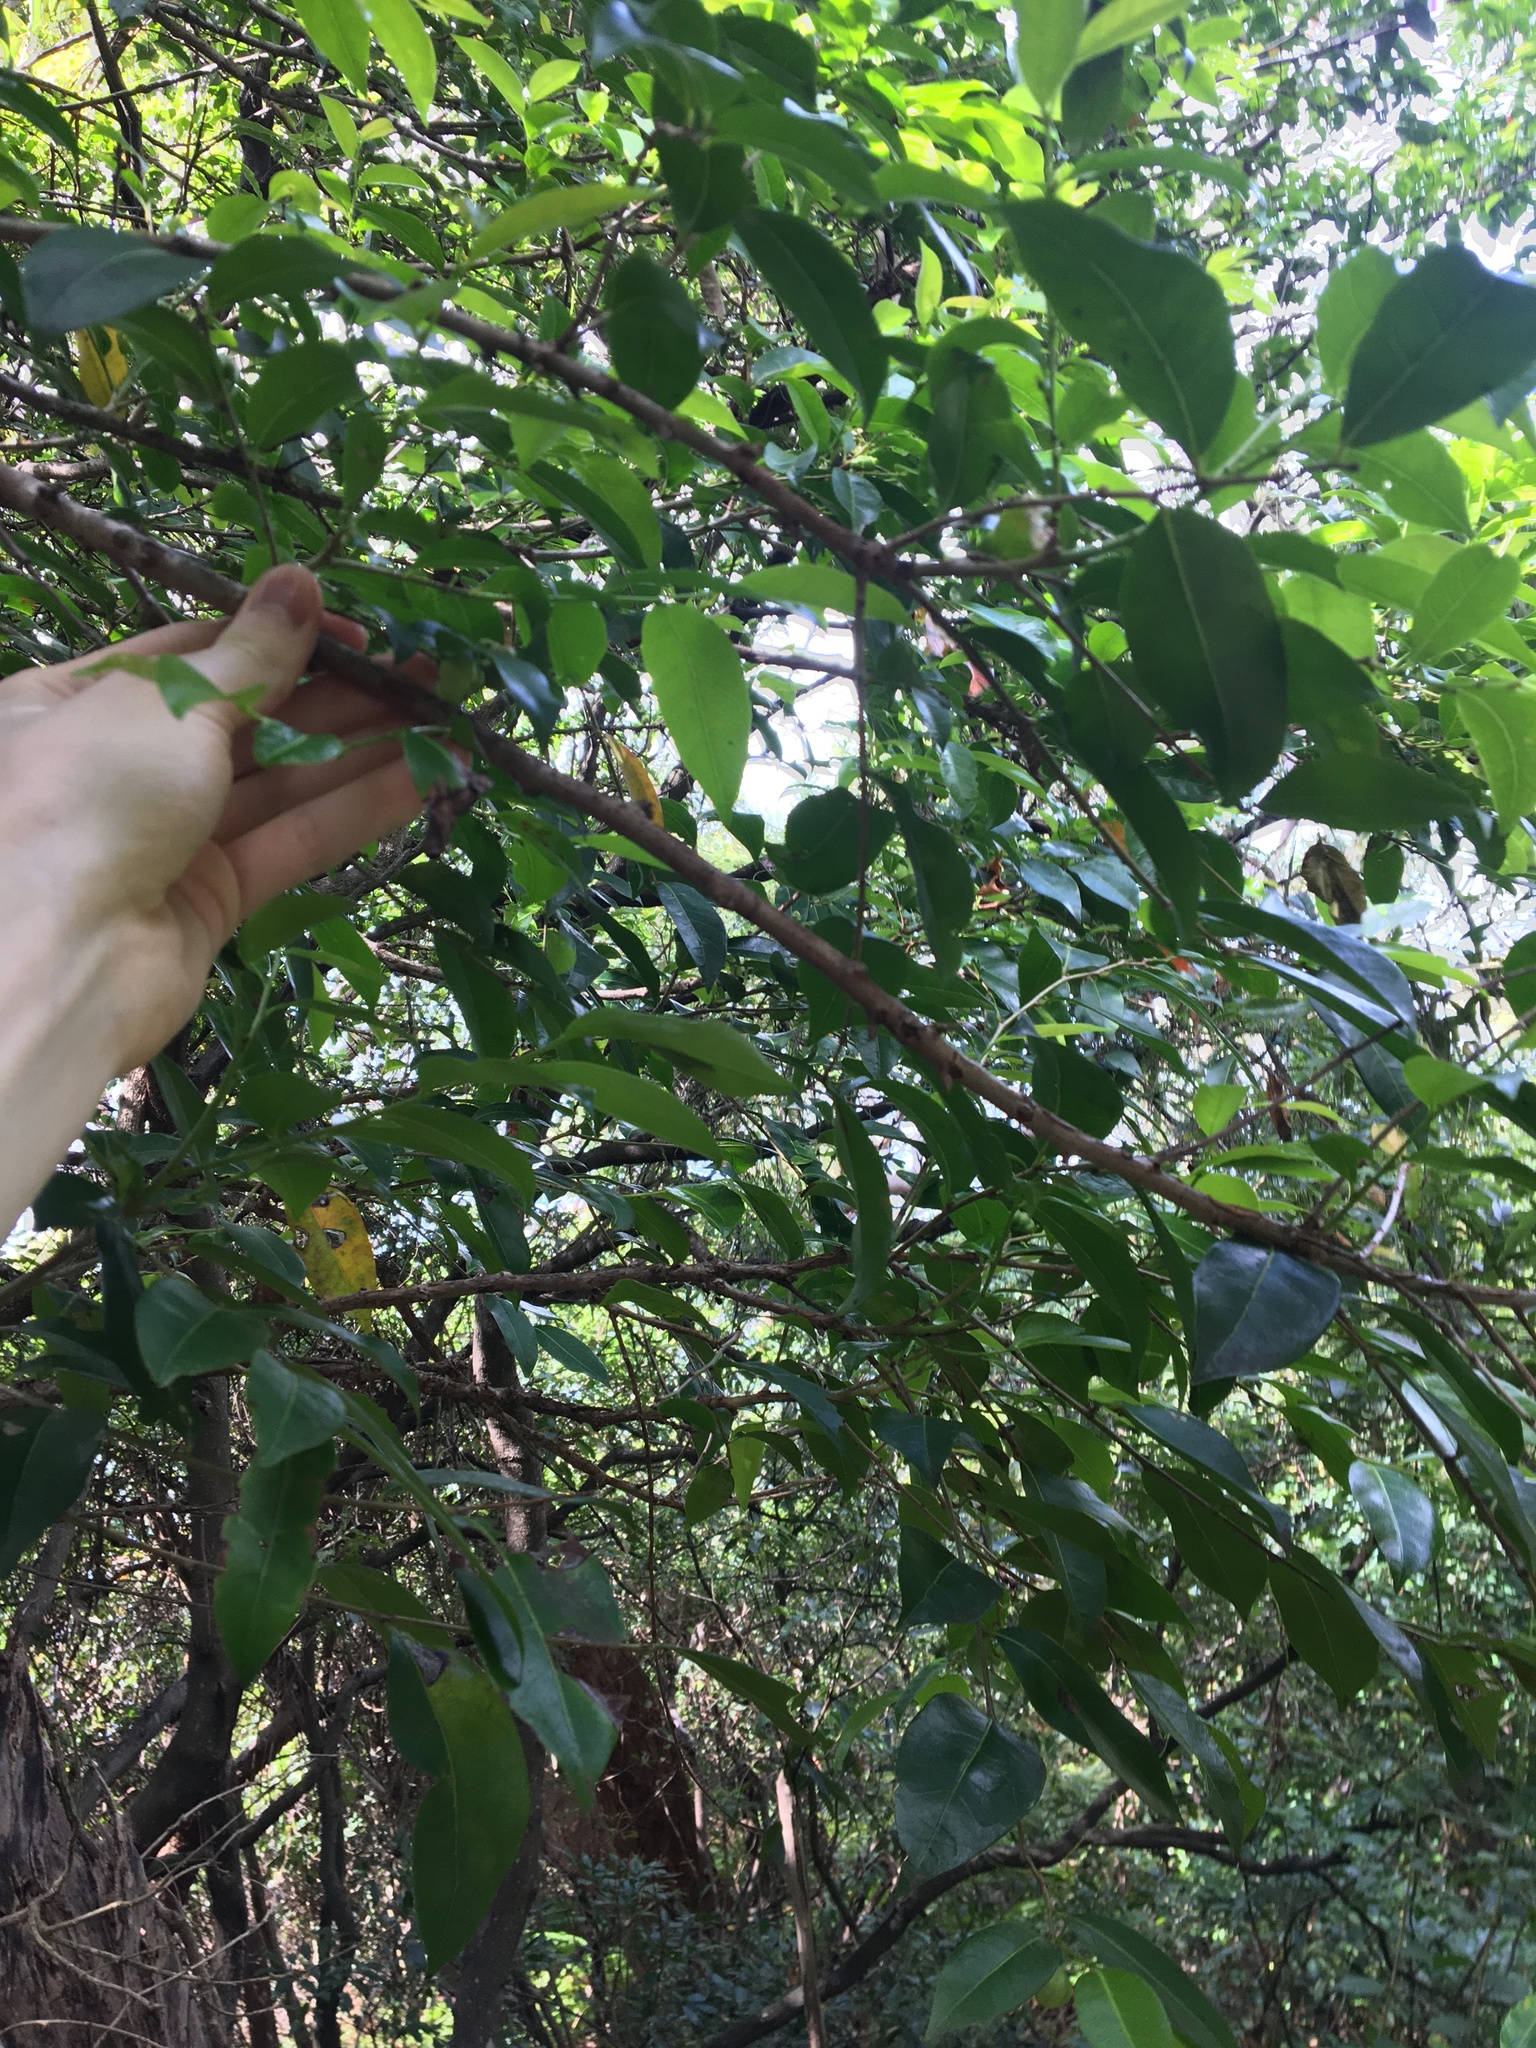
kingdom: Plantae
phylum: Tracheophyta
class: Magnoliopsida
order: Malpighiales
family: Phyllanthaceae
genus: Glochidion
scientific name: Glochidion ferdinandi
